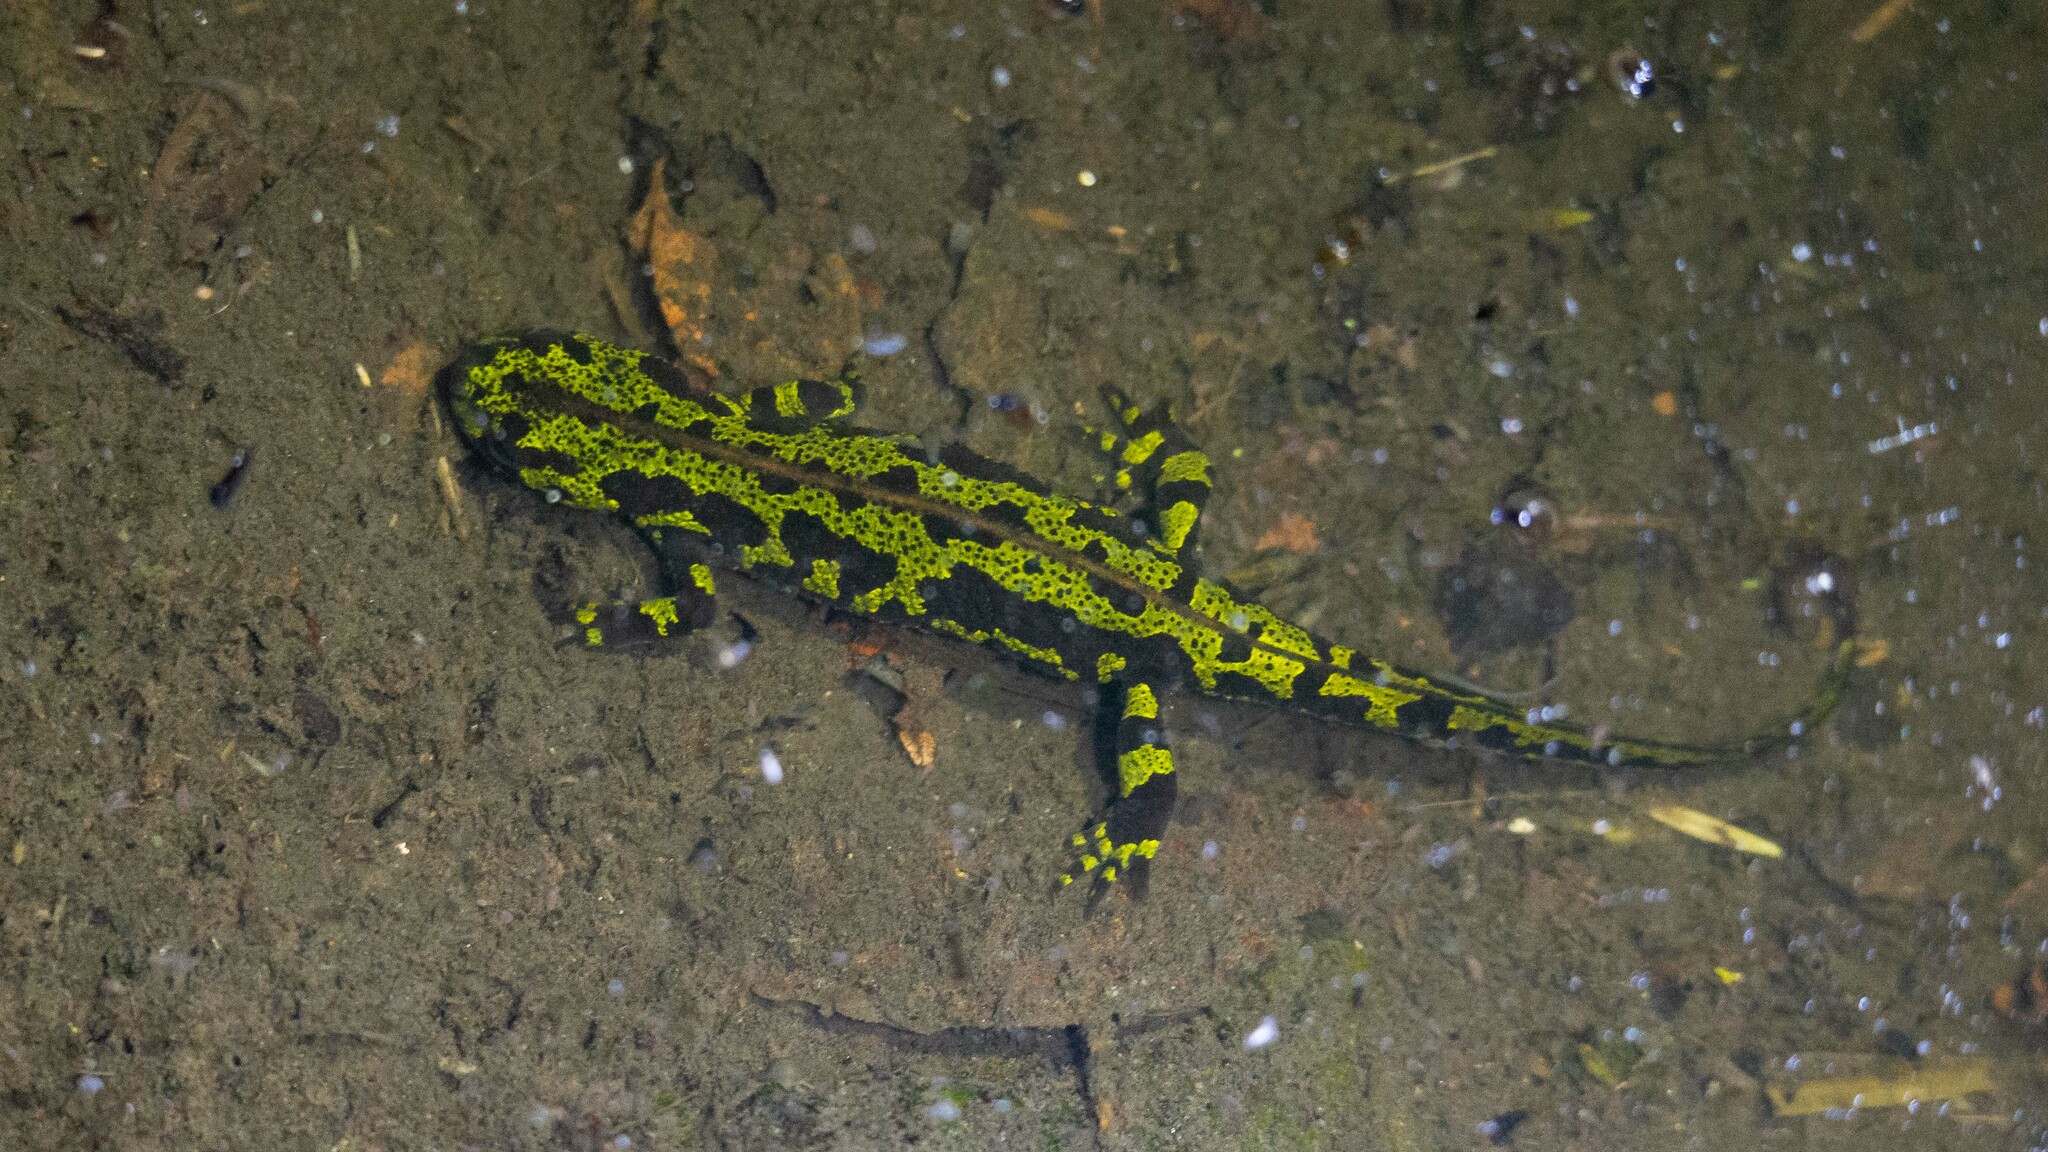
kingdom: Animalia
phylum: Chordata
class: Amphibia
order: Caudata
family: Salamandridae
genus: Triturus
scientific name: Triturus marmoratus
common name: Marbled newt
